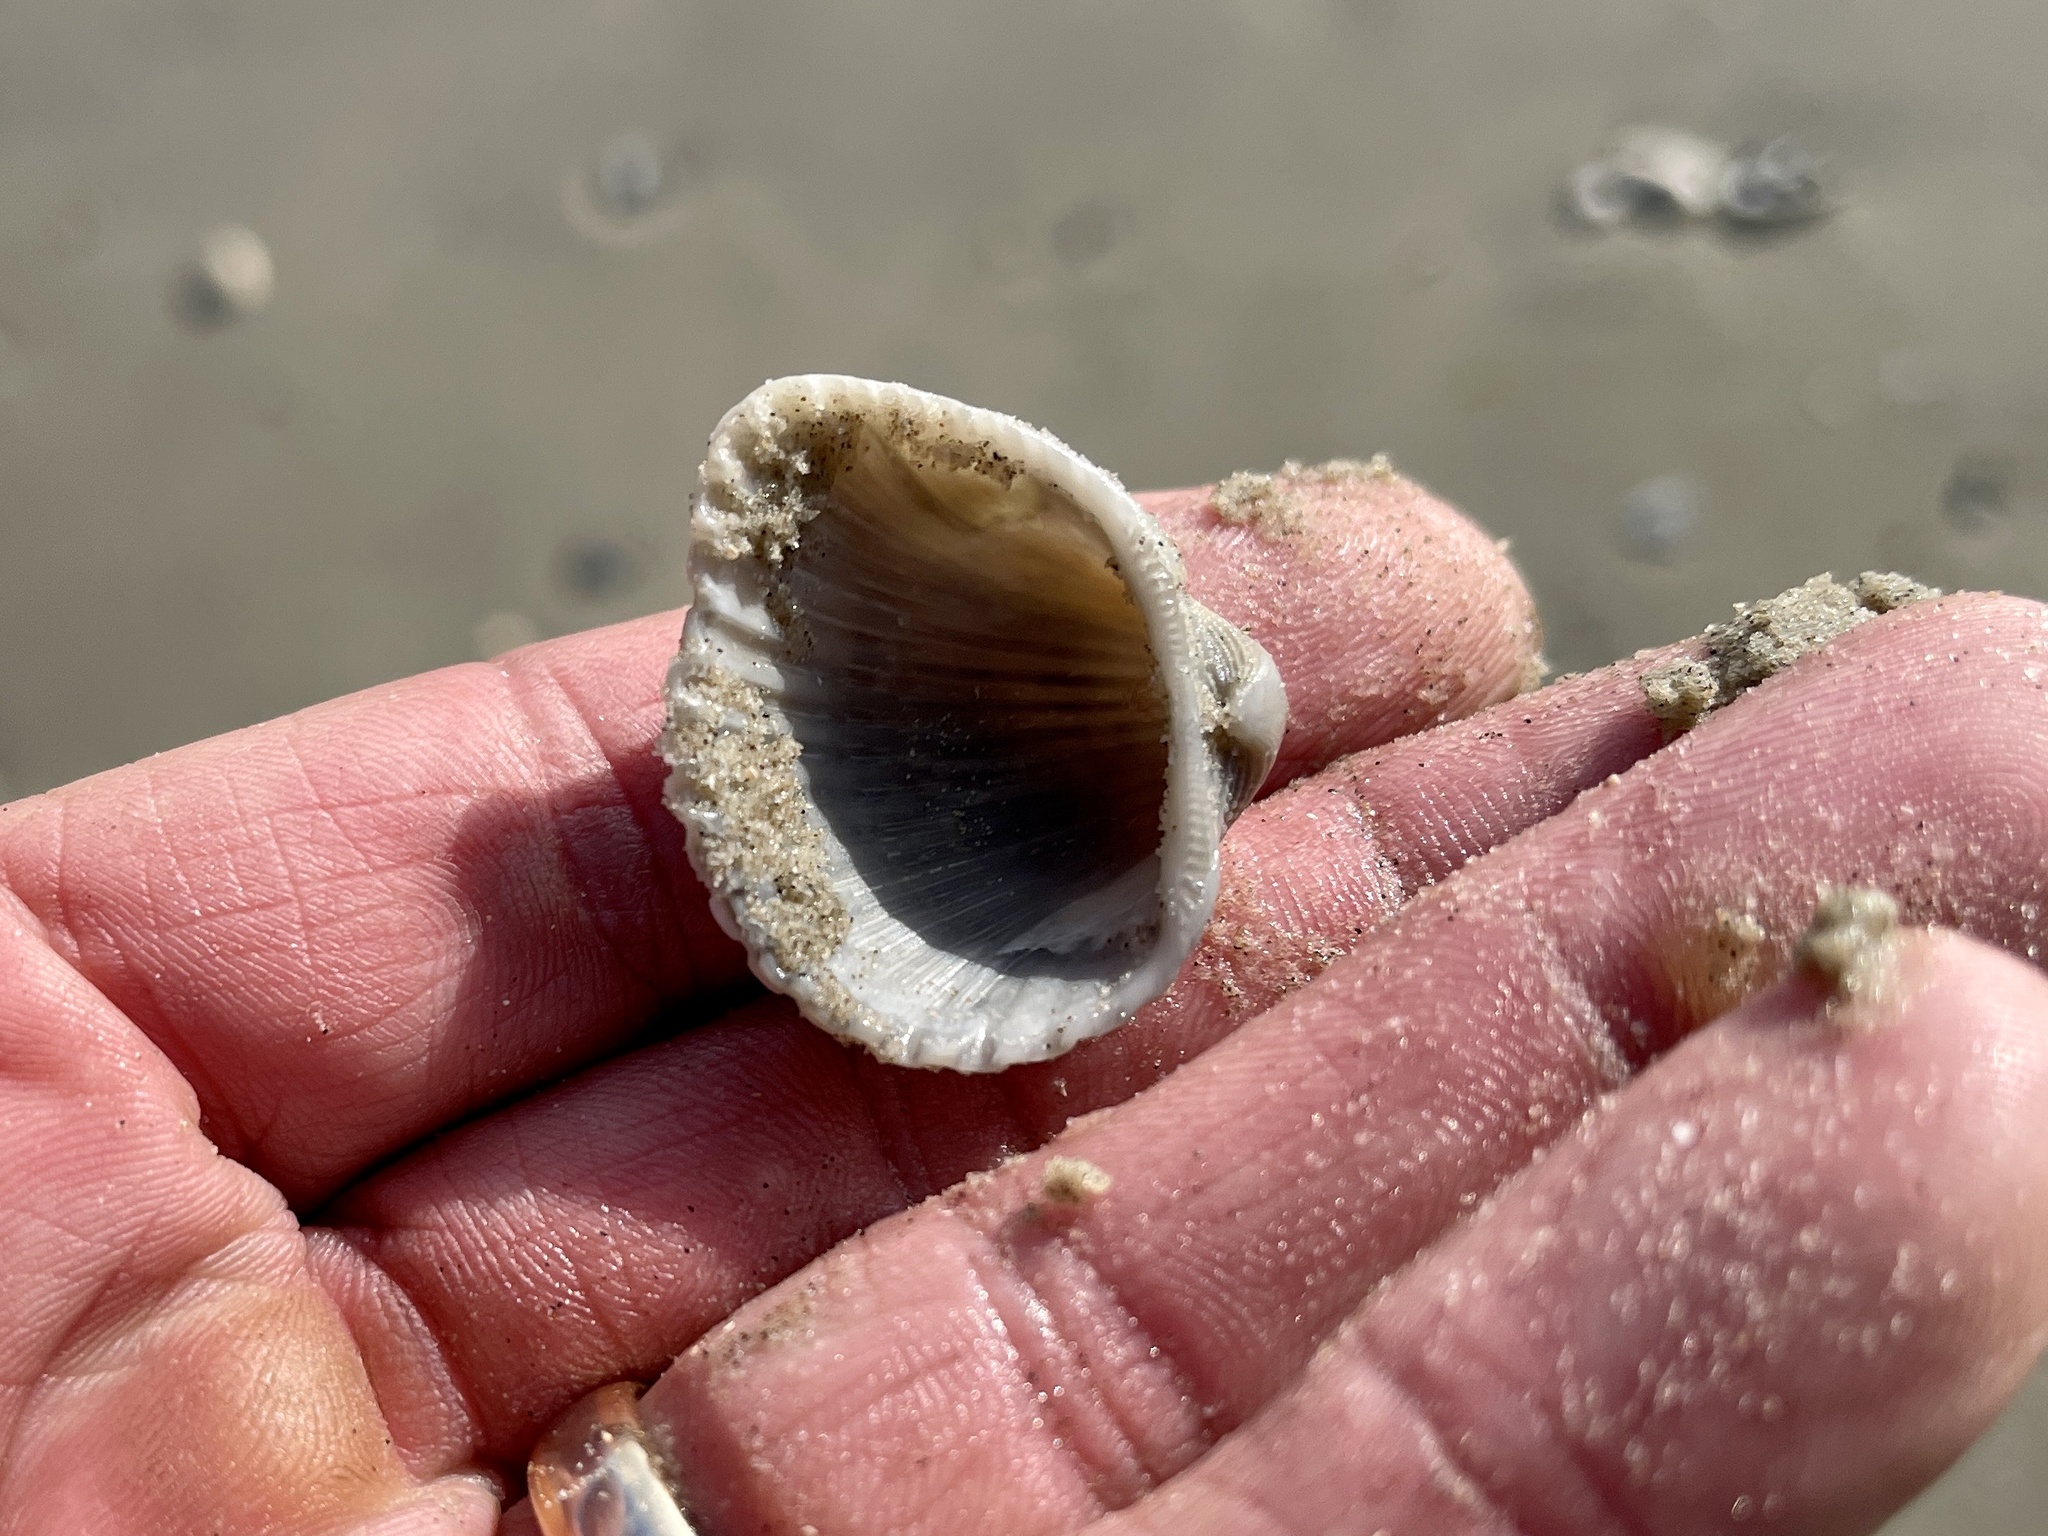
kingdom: Animalia
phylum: Mollusca
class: Bivalvia
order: Arcida
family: Arcidae
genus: Anadara
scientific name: Anadara brasiliana
